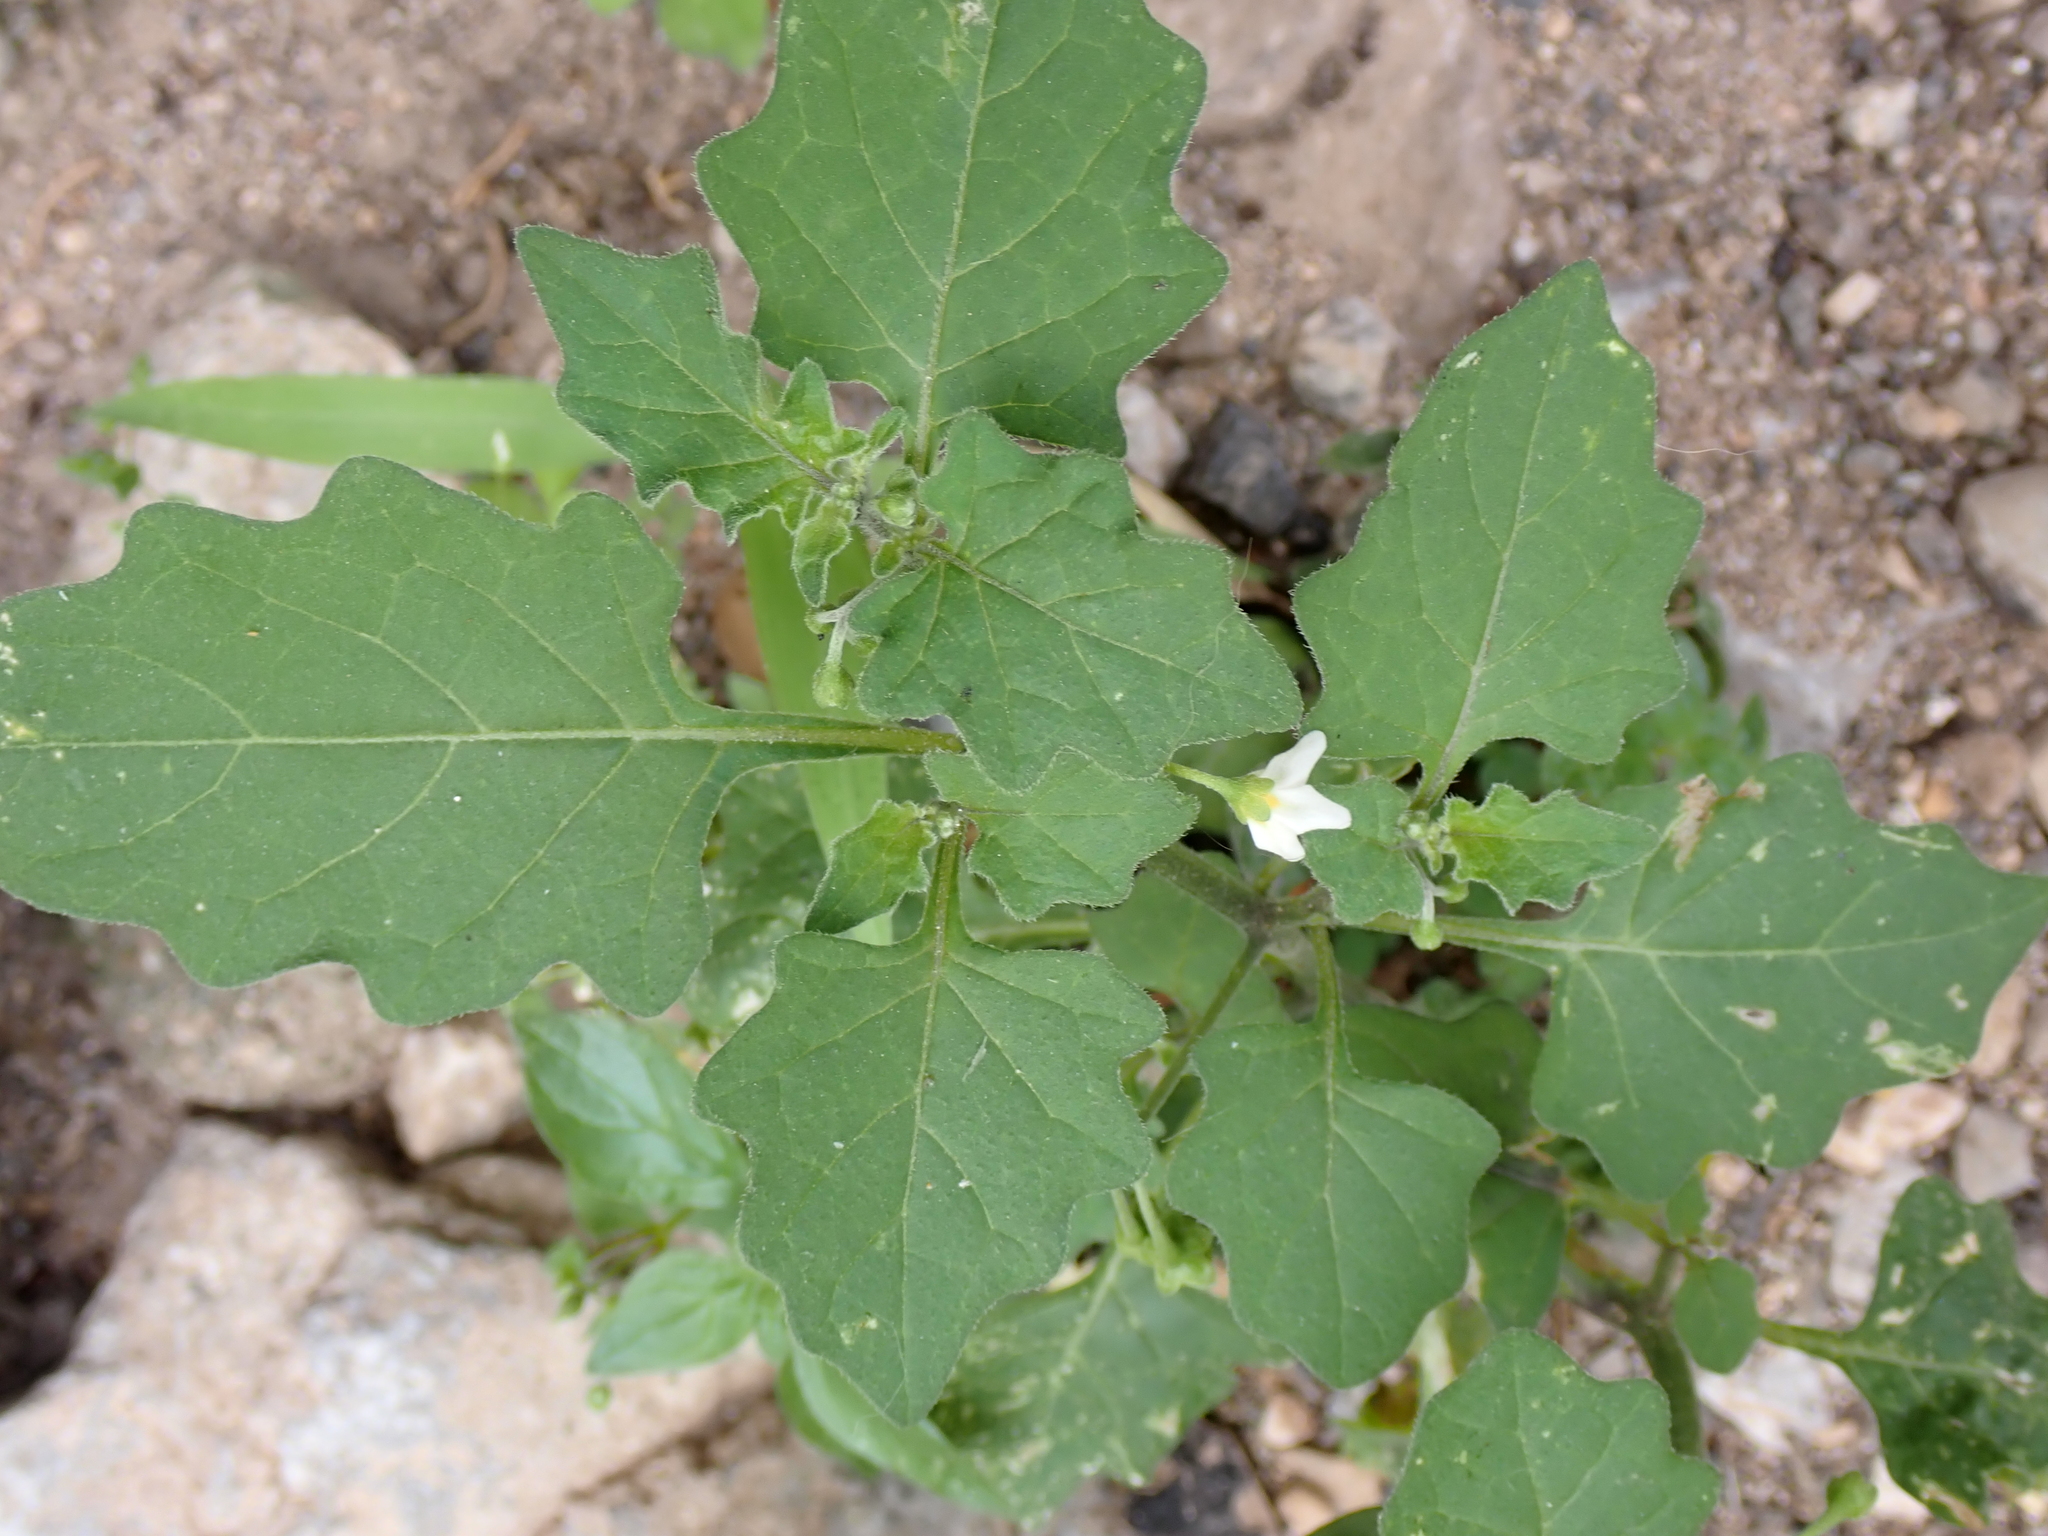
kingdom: Plantae
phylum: Tracheophyta
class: Magnoliopsida
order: Solanales
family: Solanaceae
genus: Solanum
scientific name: Solanum nigrum
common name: Black nightshade
